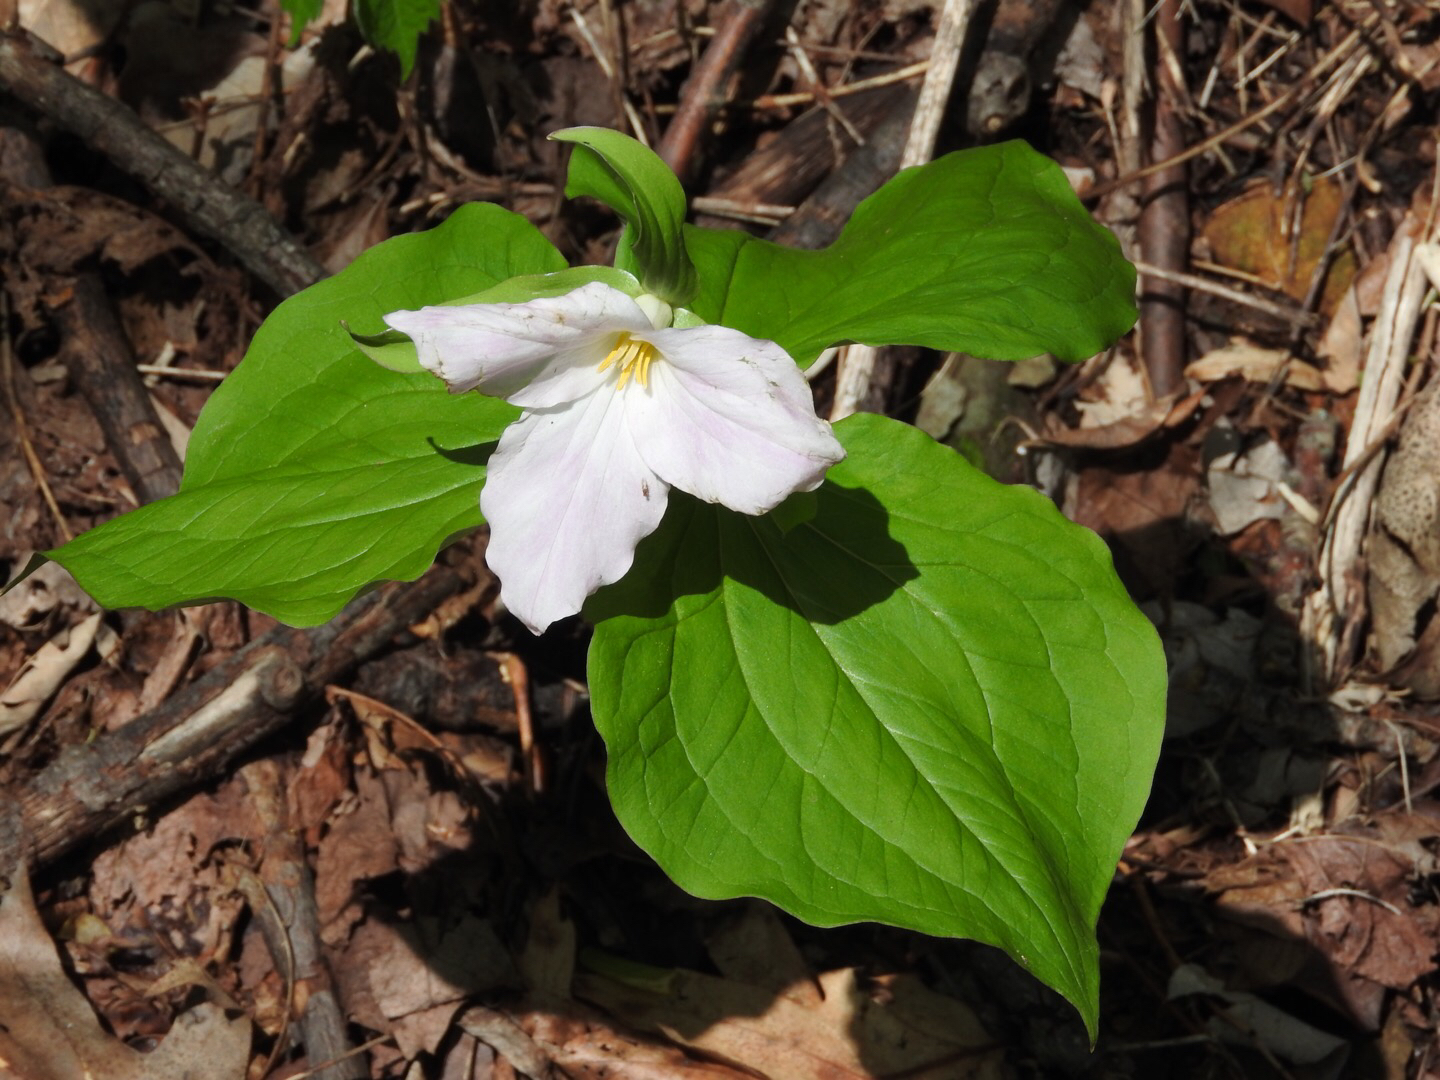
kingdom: Plantae
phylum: Tracheophyta
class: Liliopsida
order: Liliales
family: Melanthiaceae
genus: Trillium
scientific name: Trillium grandiflorum
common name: Great white trillium
